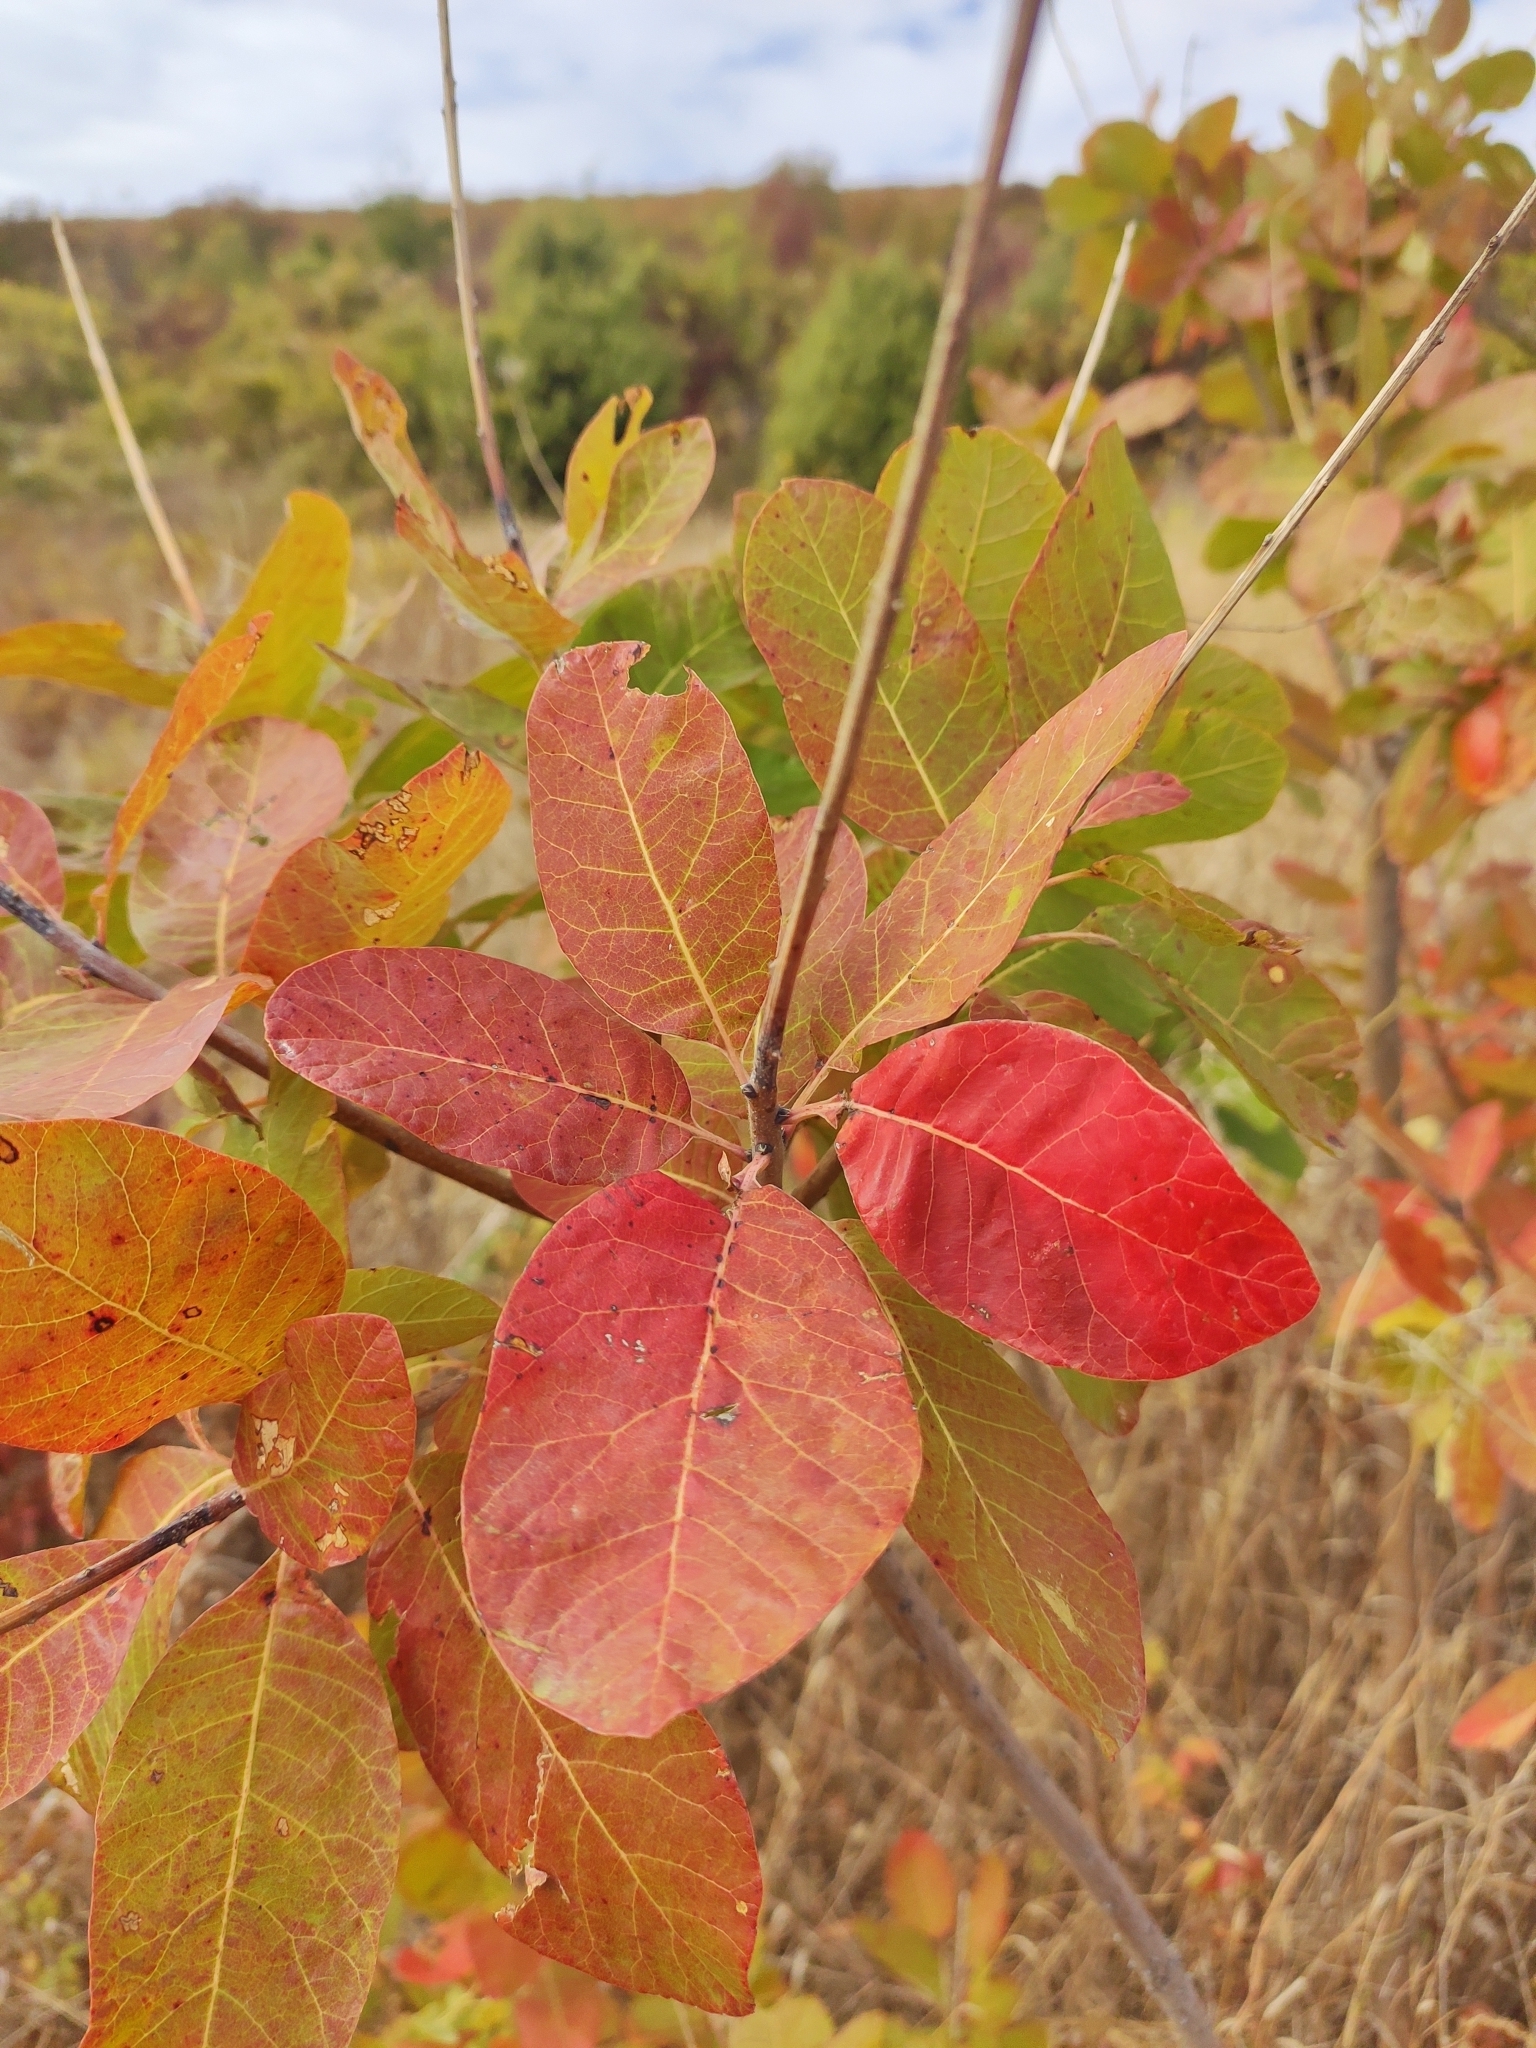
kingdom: Plantae
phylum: Tracheophyta
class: Magnoliopsida
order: Sapindales
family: Anacardiaceae
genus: Cotinus
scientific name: Cotinus coggygria
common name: Smoke-tree
